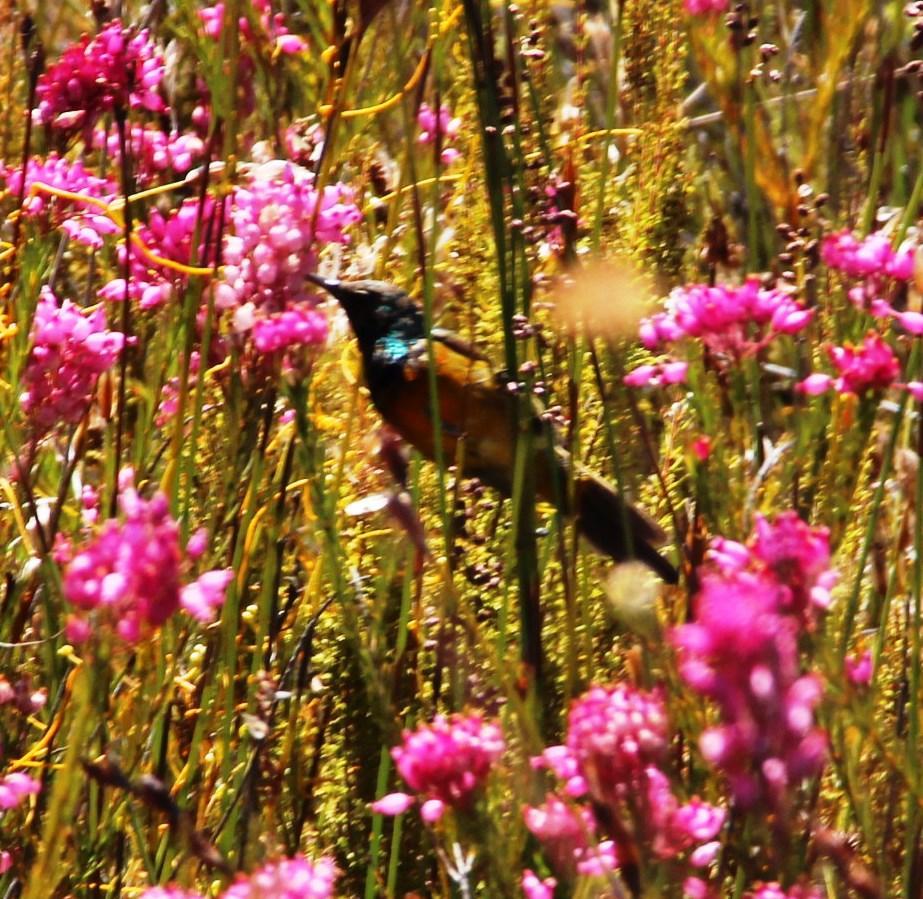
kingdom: Animalia
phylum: Chordata
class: Aves
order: Passeriformes
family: Nectariniidae
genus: Anthobaphes
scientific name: Anthobaphes violacea
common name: Orange-breasted sunbird
